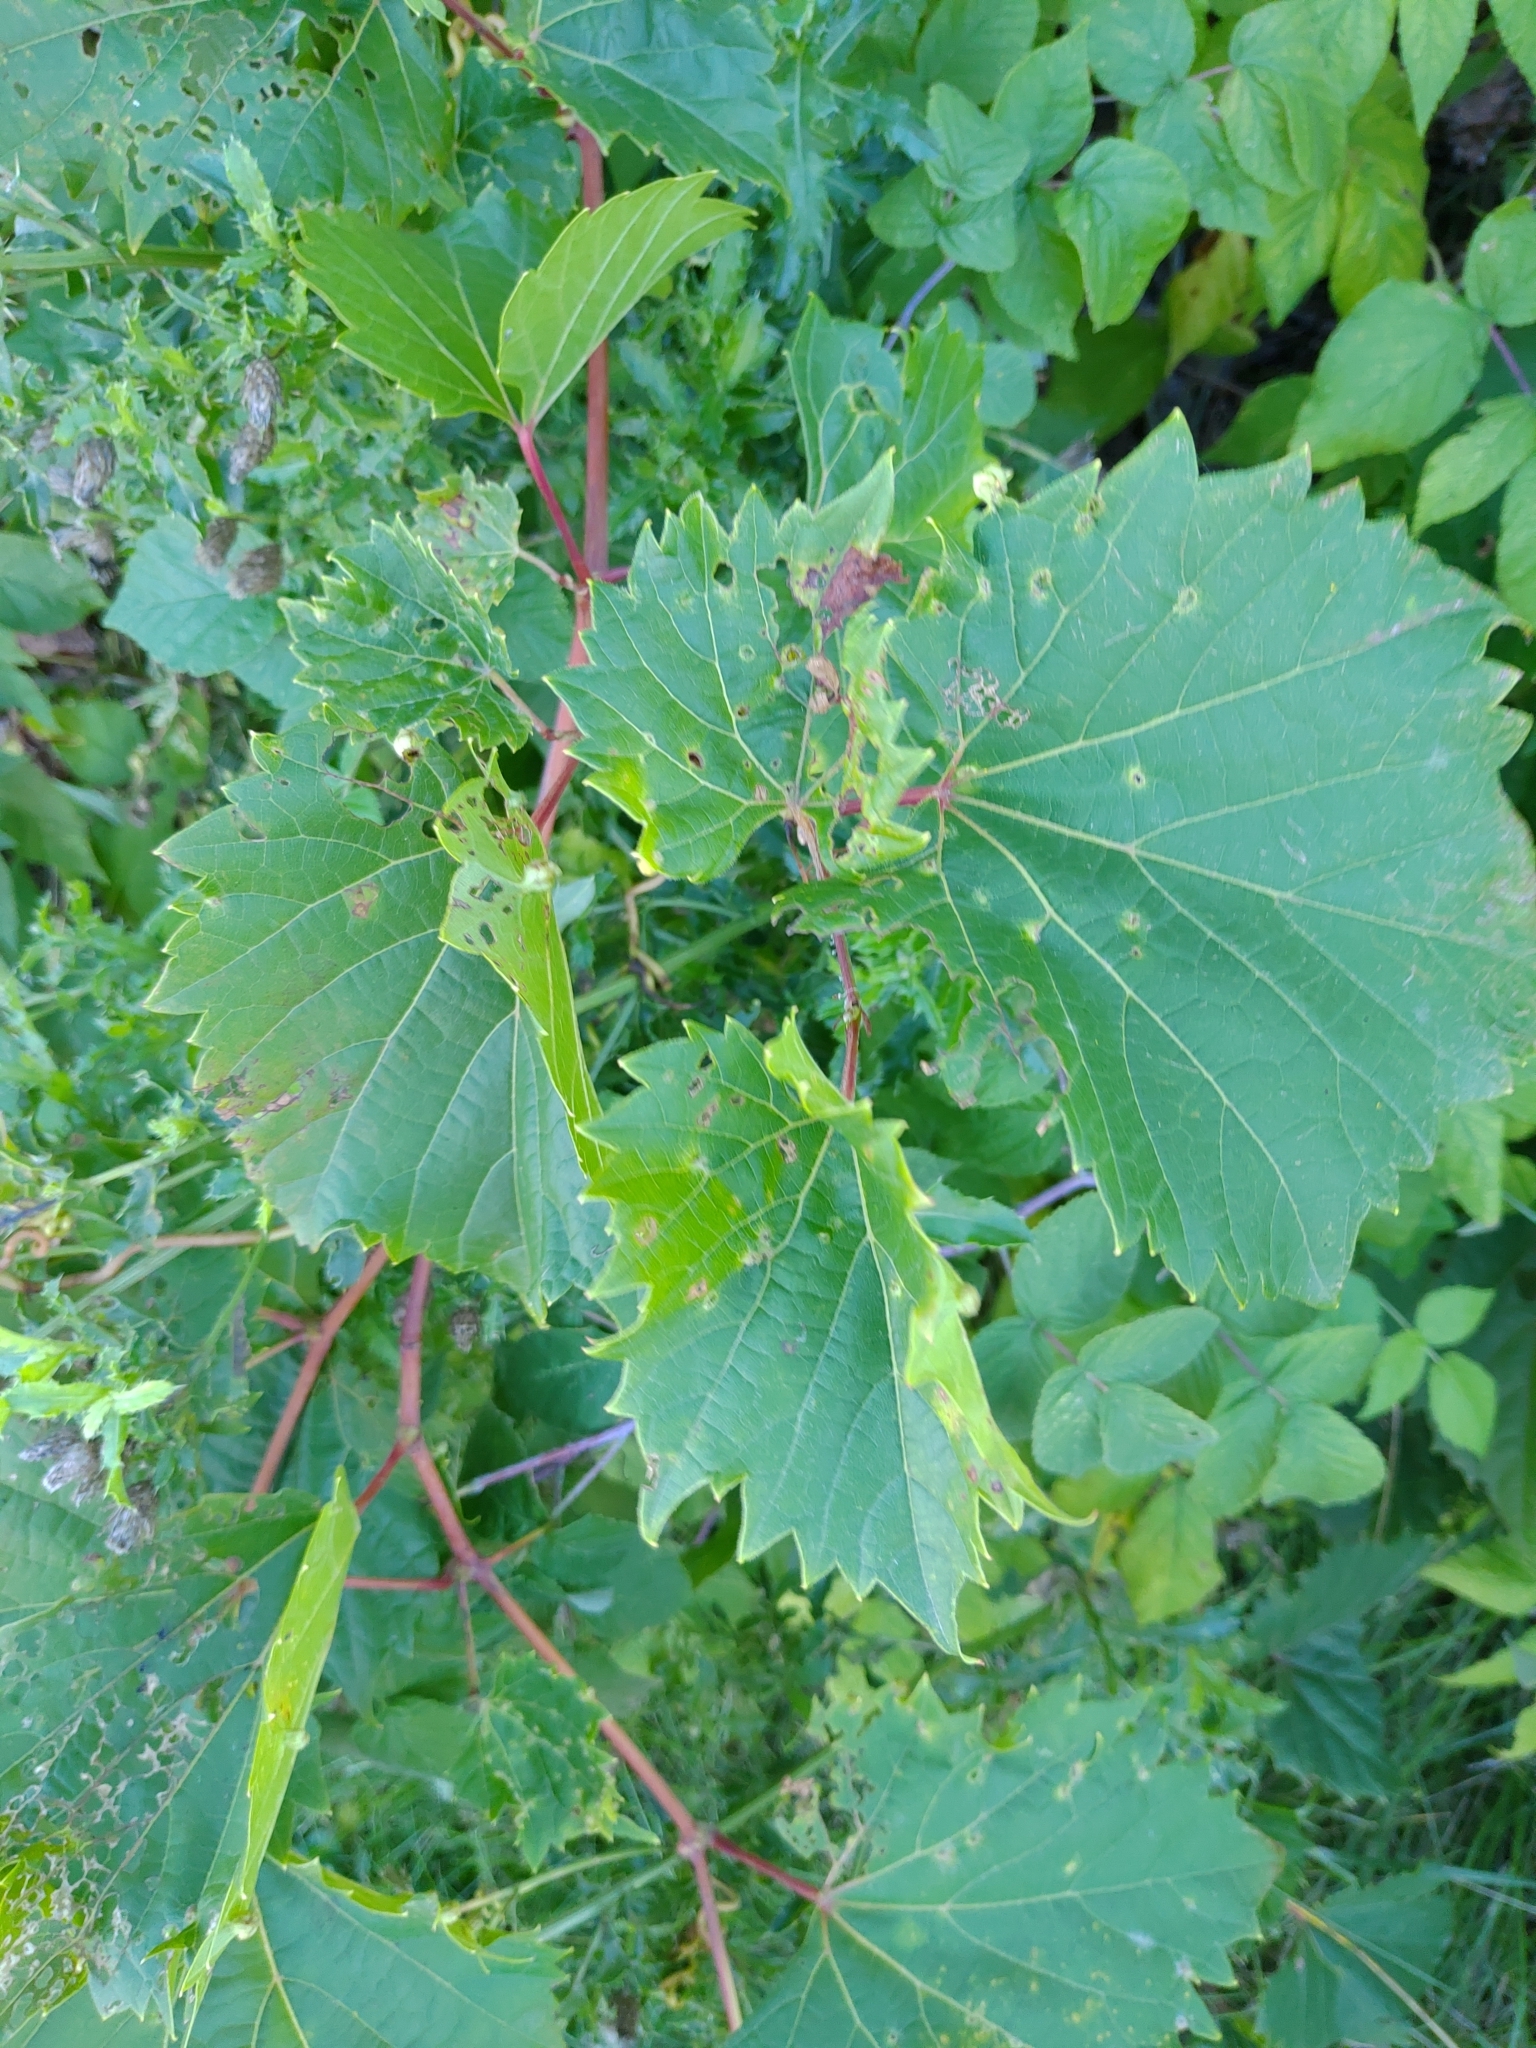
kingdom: Plantae
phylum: Tracheophyta
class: Magnoliopsida
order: Vitales
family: Vitaceae
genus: Vitis
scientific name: Vitis riparia
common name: Frost grape
